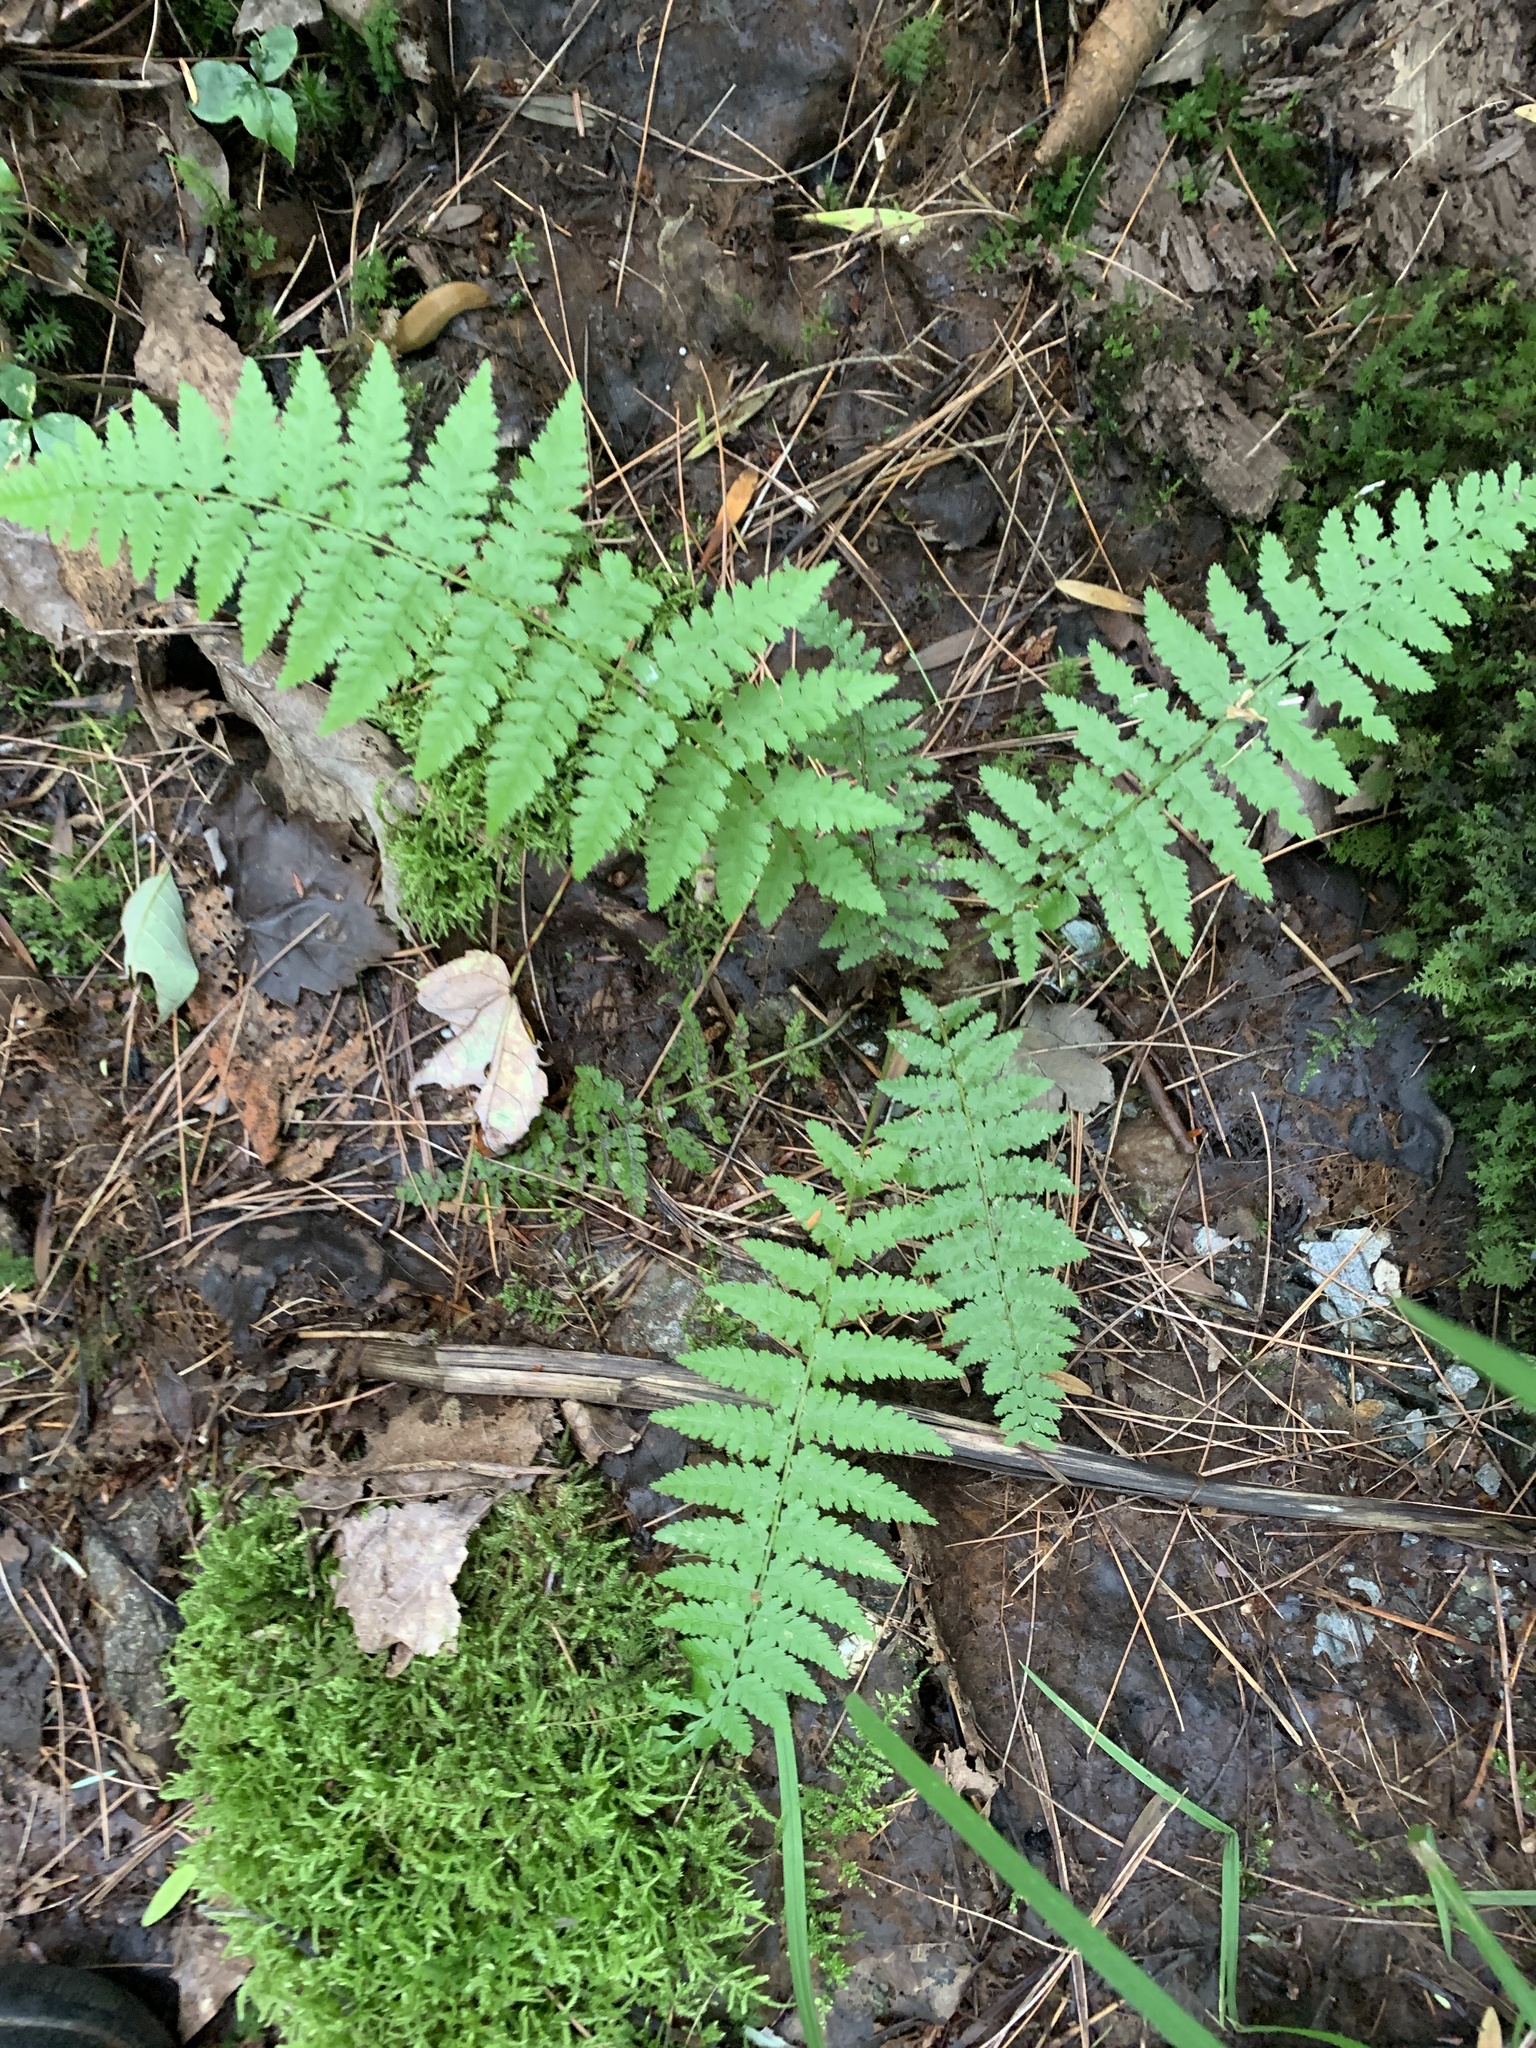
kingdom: Plantae
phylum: Tracheophyta
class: Polypodiopsida
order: Polypodiales
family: Athyriaceae
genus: Athyrium
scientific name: Athyrium angustum
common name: Northern lady fern
